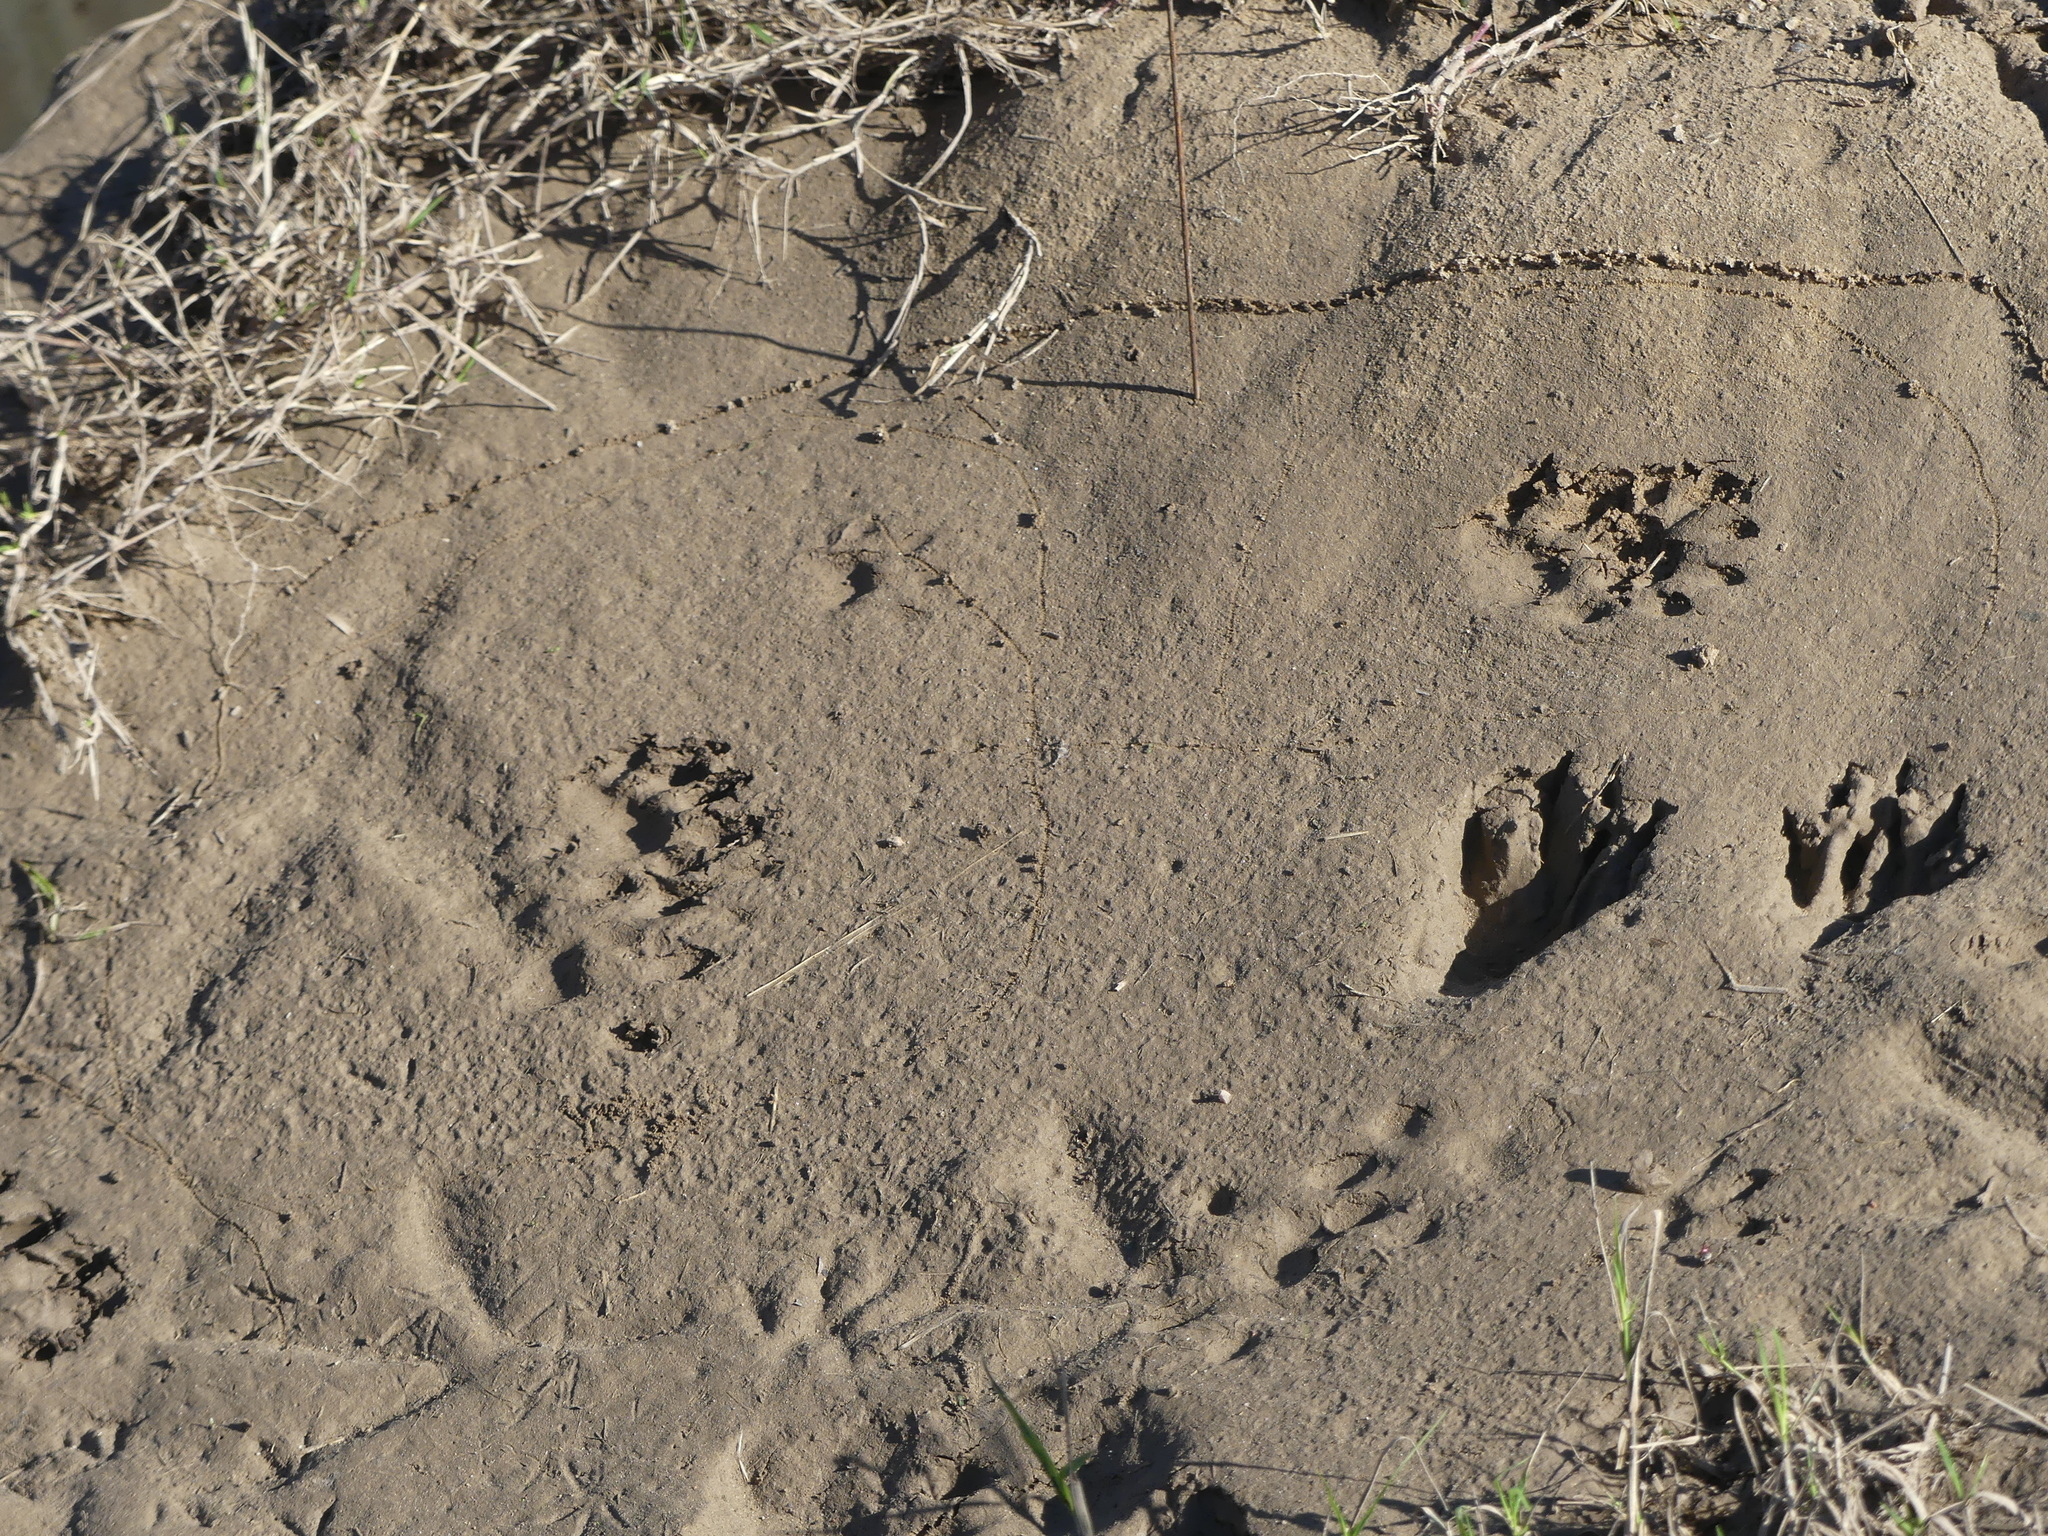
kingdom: Animalia
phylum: Chordata
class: Mammalia
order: Carnivora
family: Mustelidae
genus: Lontra
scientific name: Lontra canadensis
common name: North american river otter
